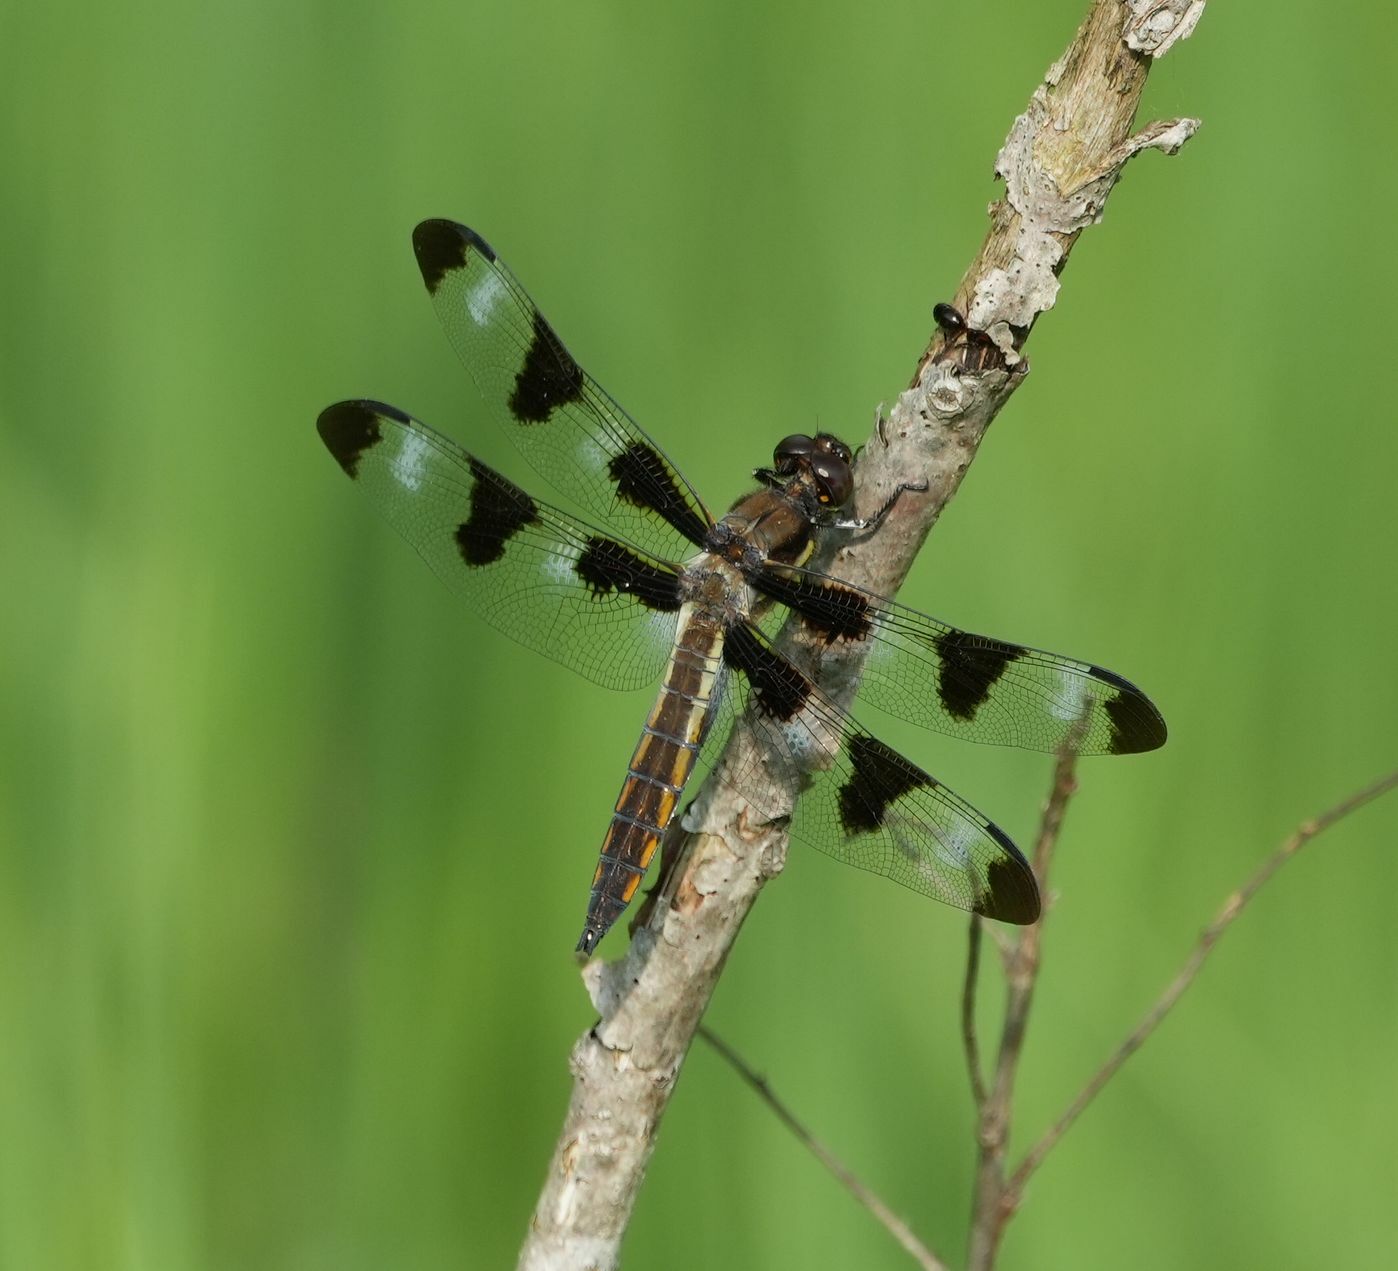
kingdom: Animalia
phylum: Arthropoda
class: Insecta
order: Odonata
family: Libellulidae
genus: Libellula
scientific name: Libellula pulchella
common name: Twelve-spotted skimmer
